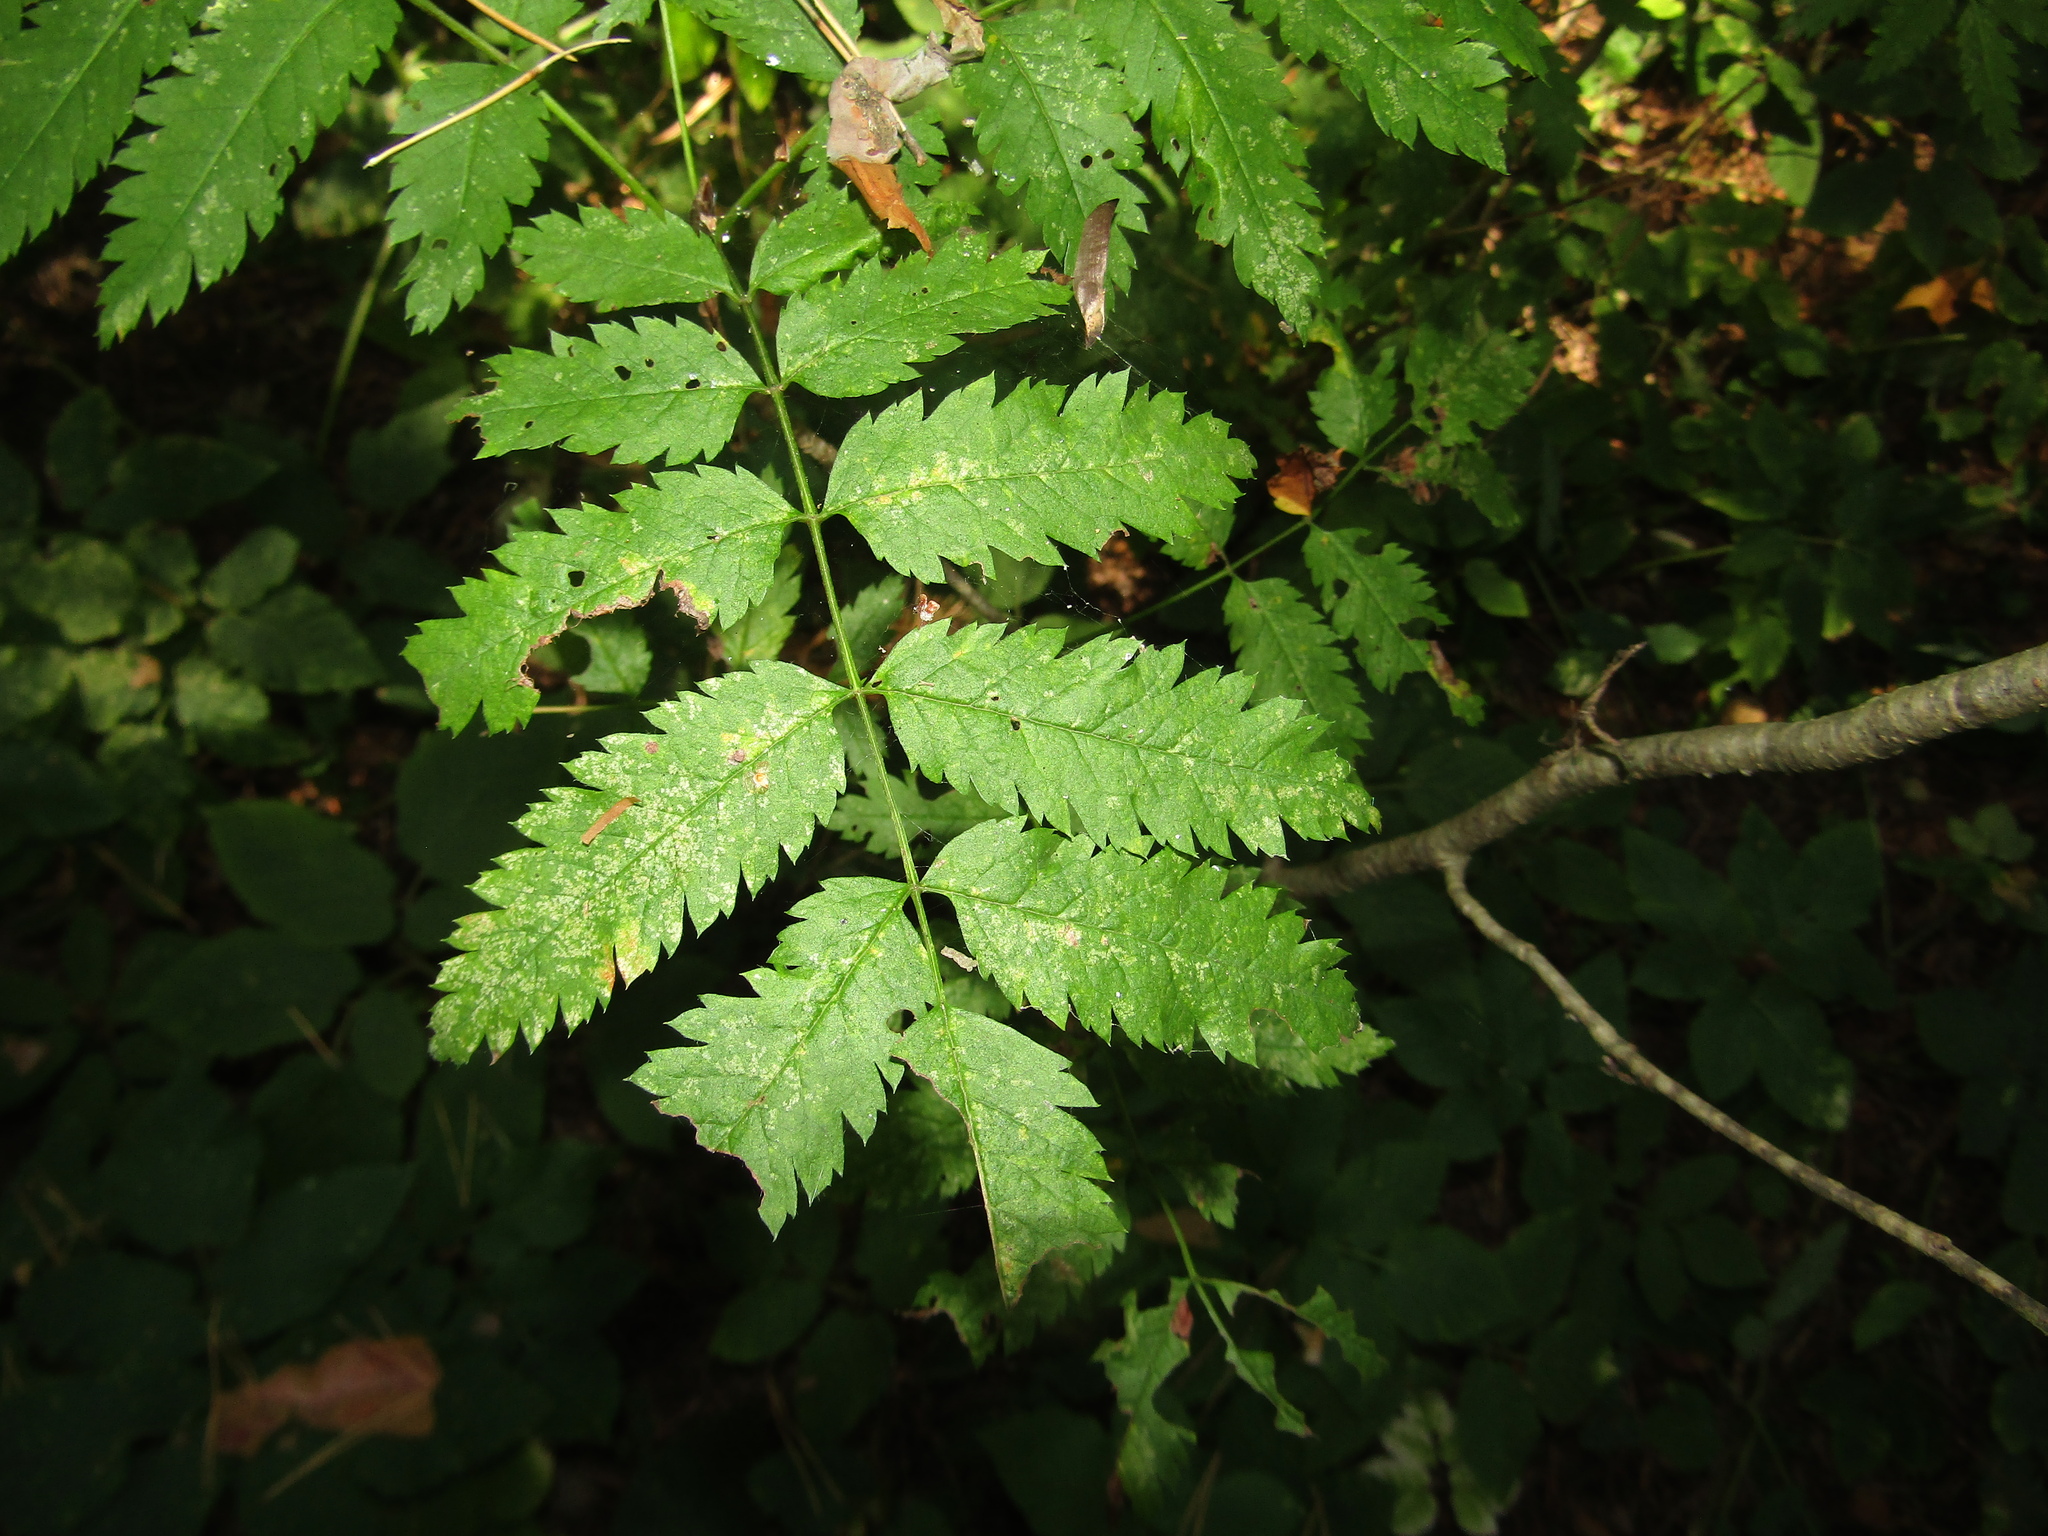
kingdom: Plantae
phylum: Tracheophyta
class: Magnoliopsida
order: Rosales
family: Rosaceae
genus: Sorbus
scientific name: Sorbus aucuparia
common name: Rowan
